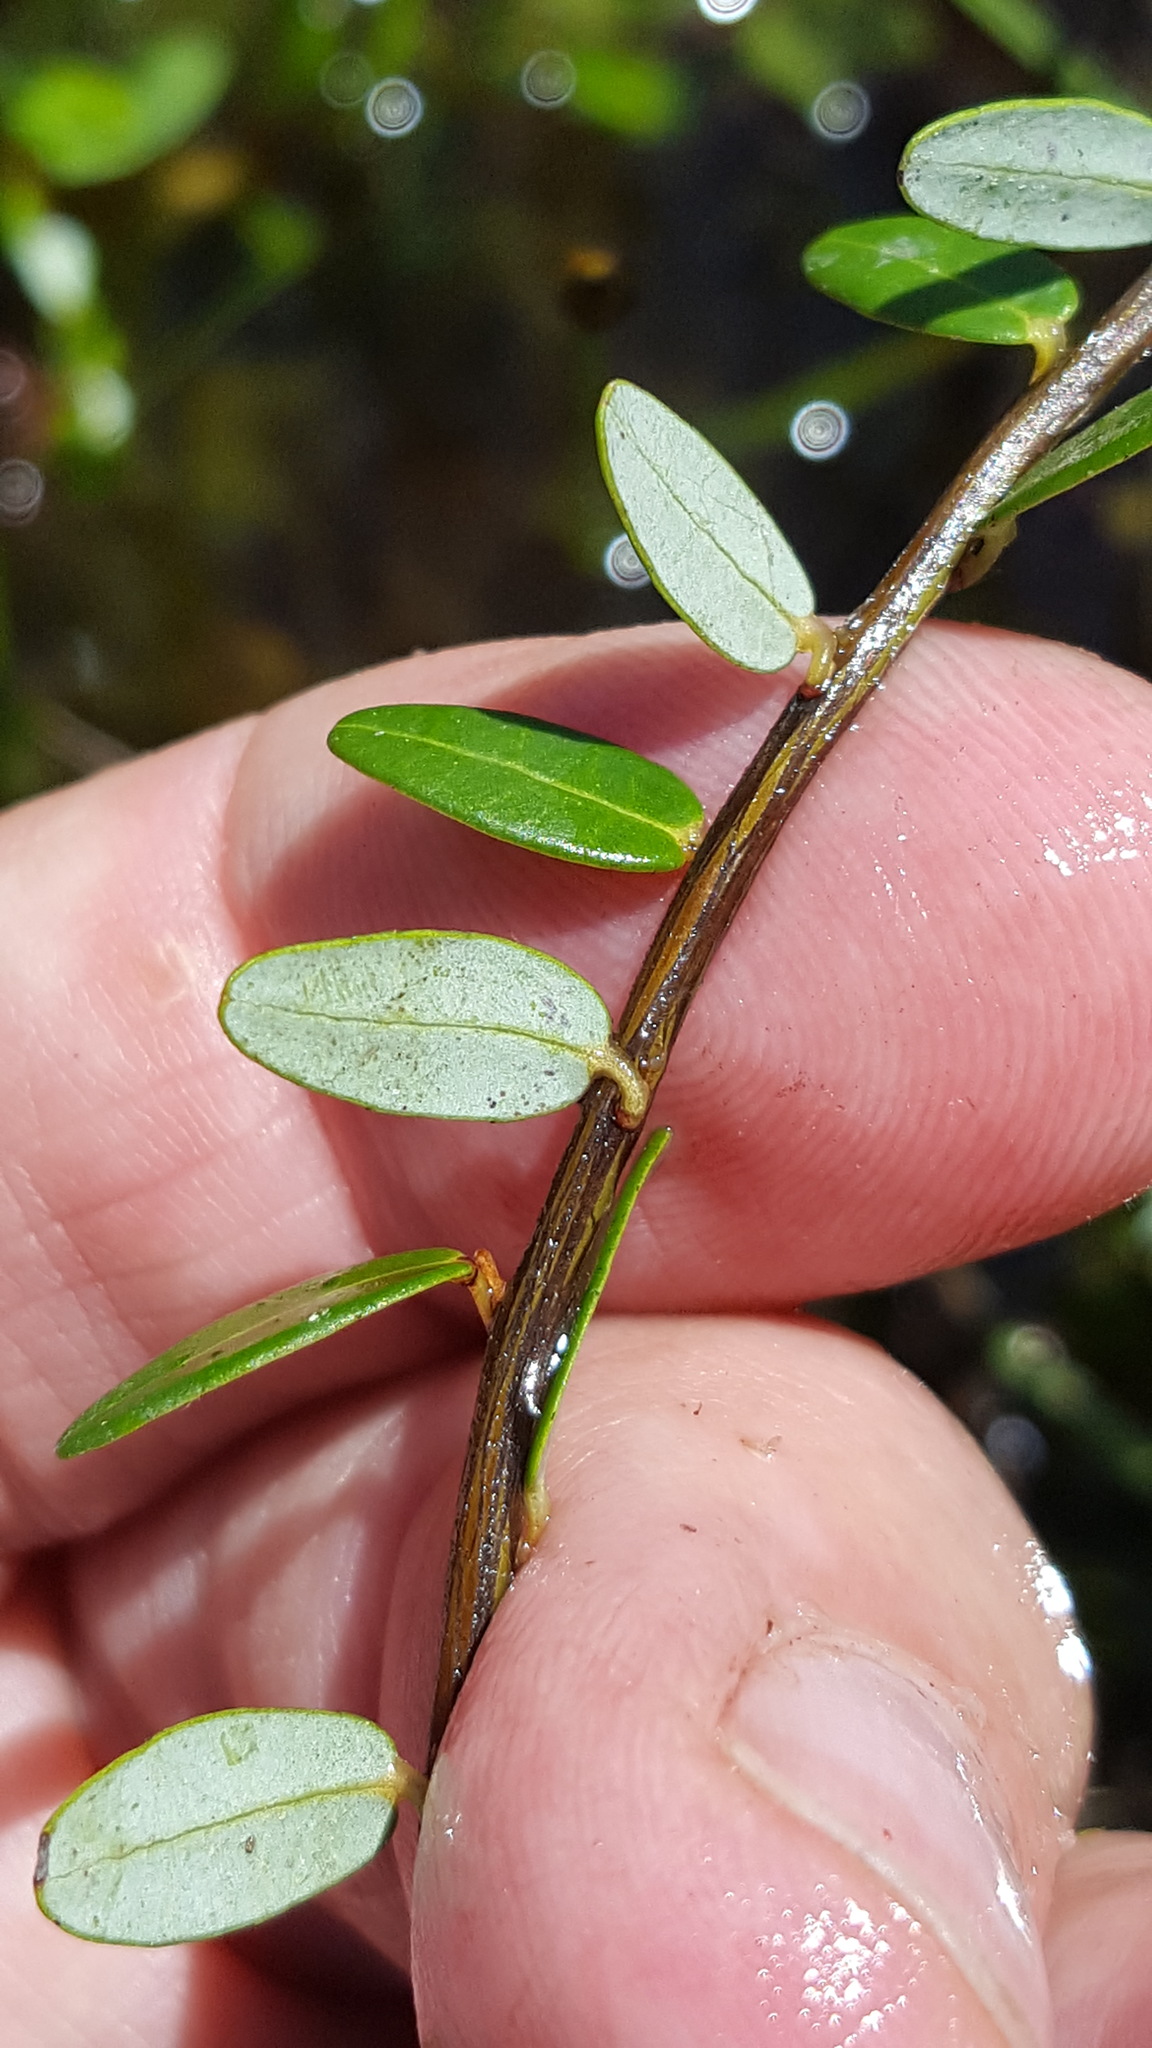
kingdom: Plantae
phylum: Tracheophyta
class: Magnoliopsida
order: Ericales
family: Ericaceae
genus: Vaccinium
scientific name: Vaccinium macrocarpon
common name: American cranberry
